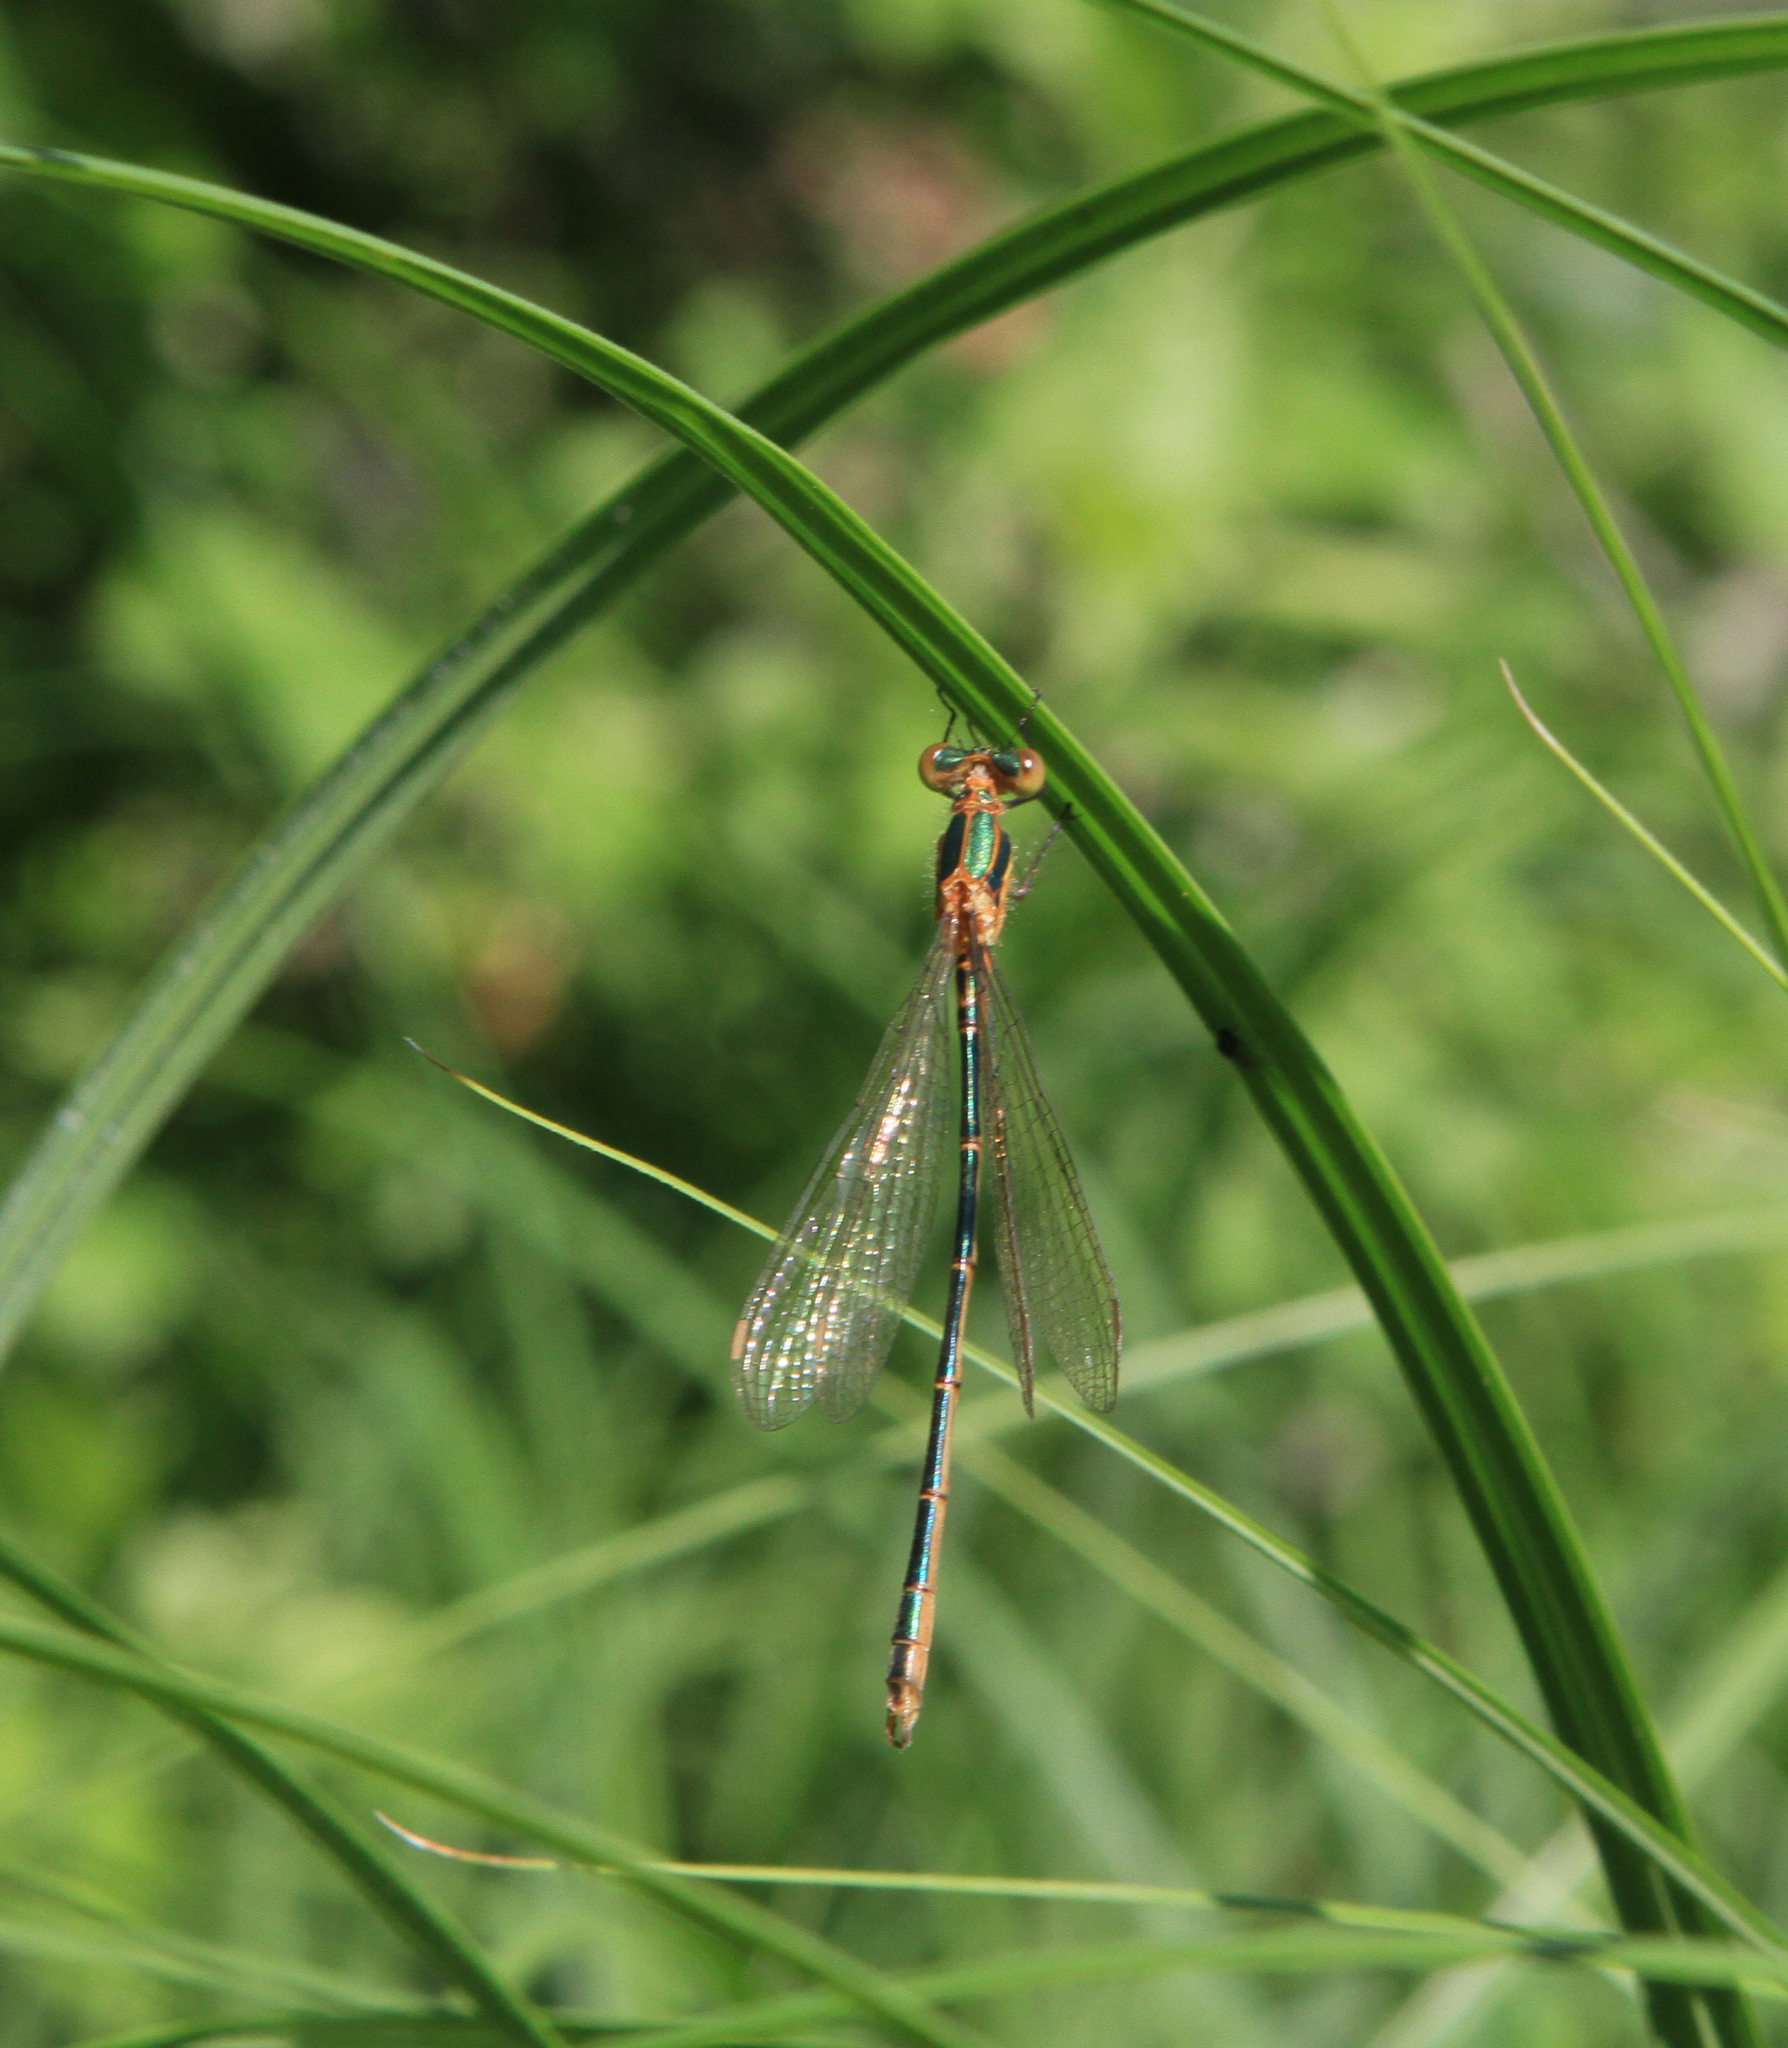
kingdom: Animalia
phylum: Arthropoda
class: Insecta
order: Odonata
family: Lestidae
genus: Lestes
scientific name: Lestes sponsa
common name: Common spreadwing
